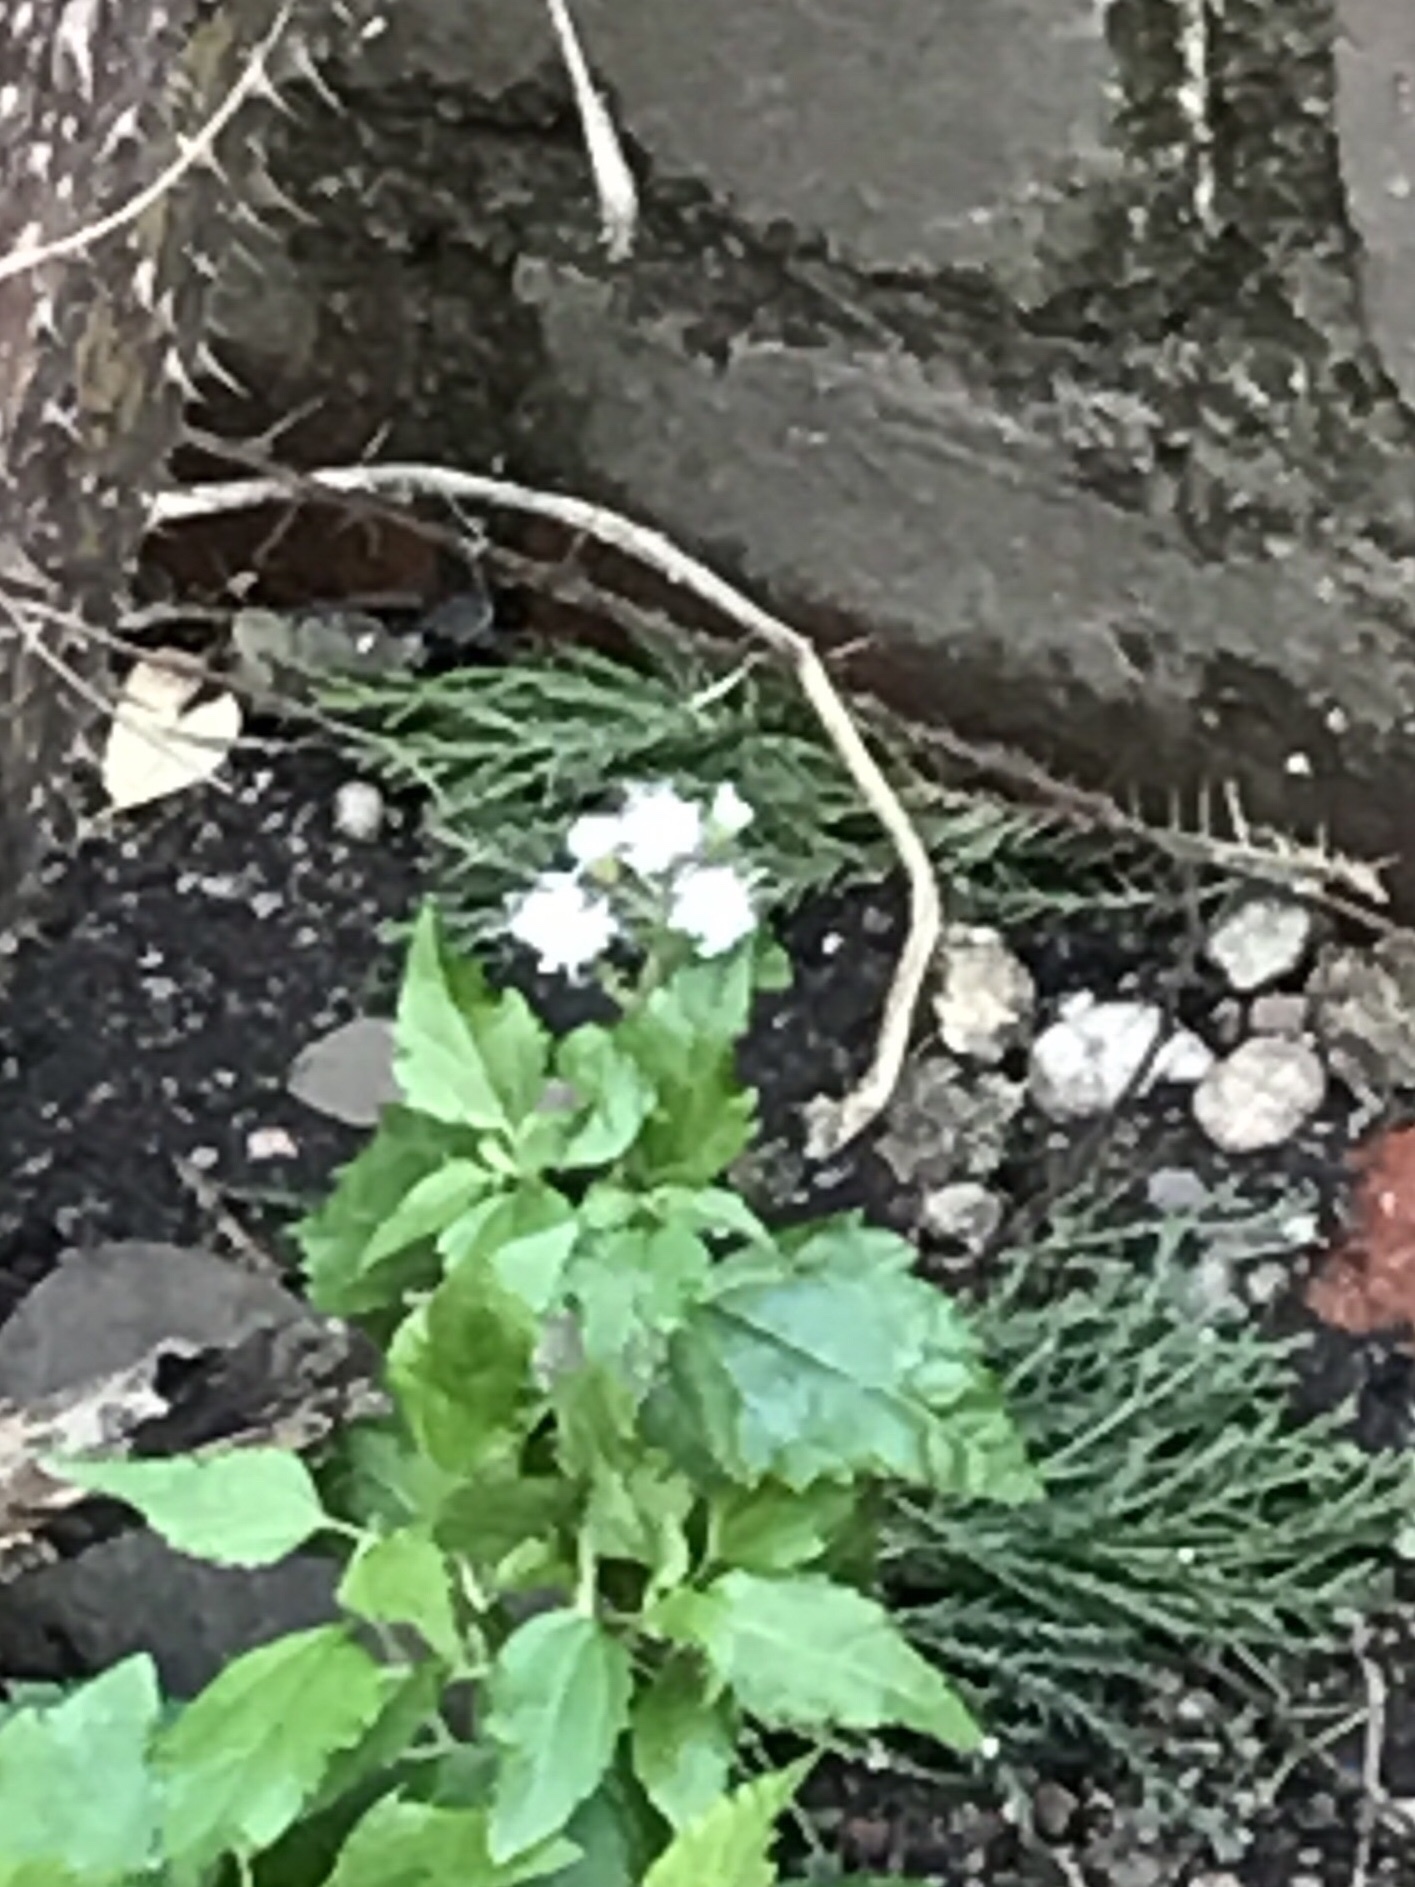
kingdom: Plantae
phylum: Tracheophyta
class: Magnoliopsida
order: Asterales
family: Asteraceae
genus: Ageratina
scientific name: Ageratina altissima
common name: White snakeroot
